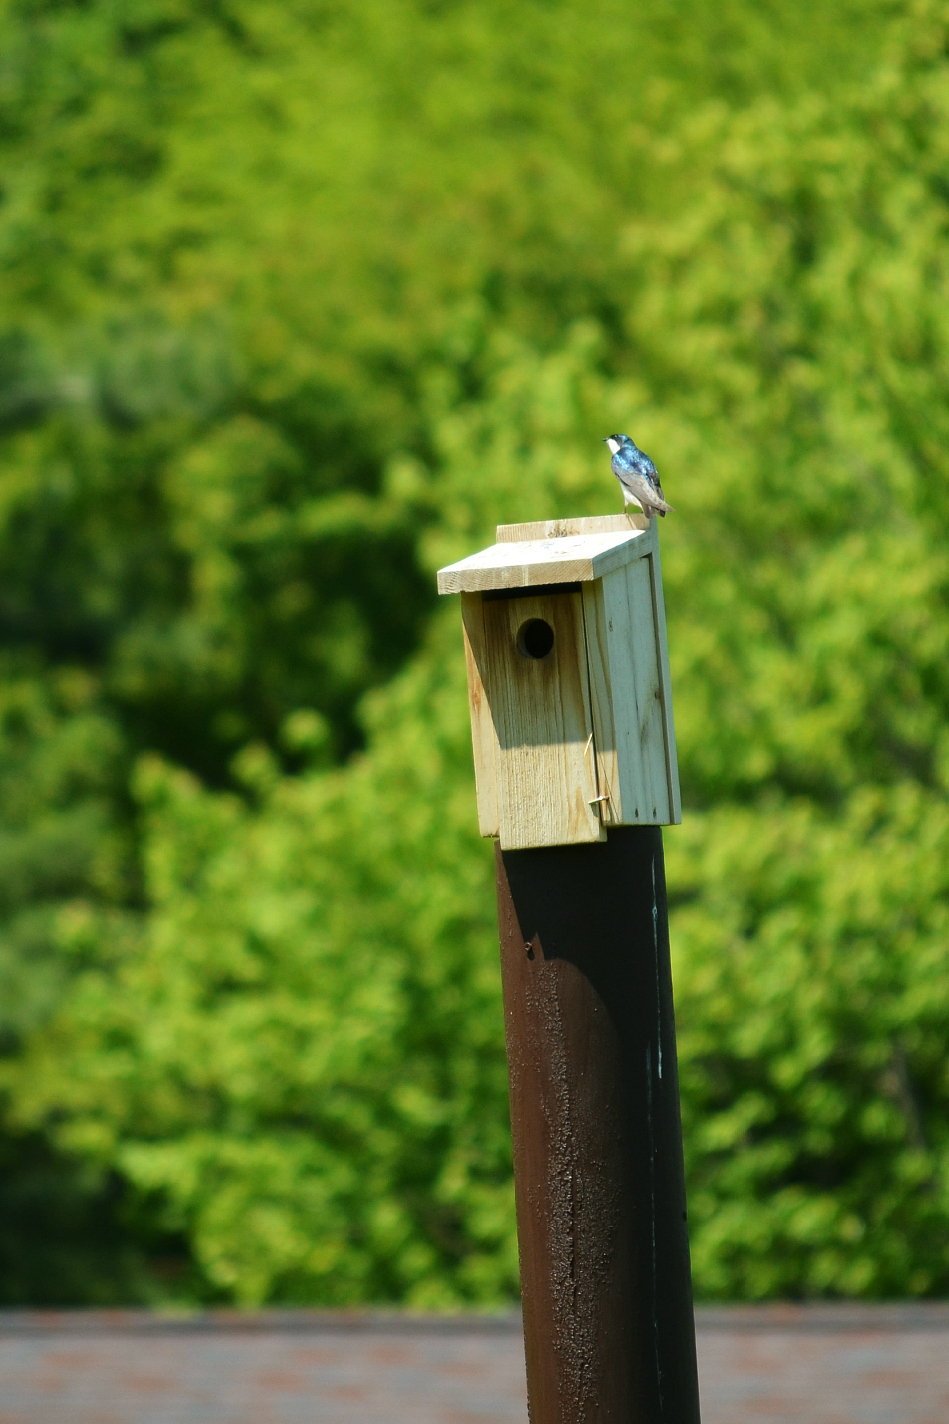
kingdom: Animalia
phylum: Chordata
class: Aves
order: Passeriformes
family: Hirundinidae
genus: Tachycineta
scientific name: Tachycineta bicolor
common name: Tree swallow
